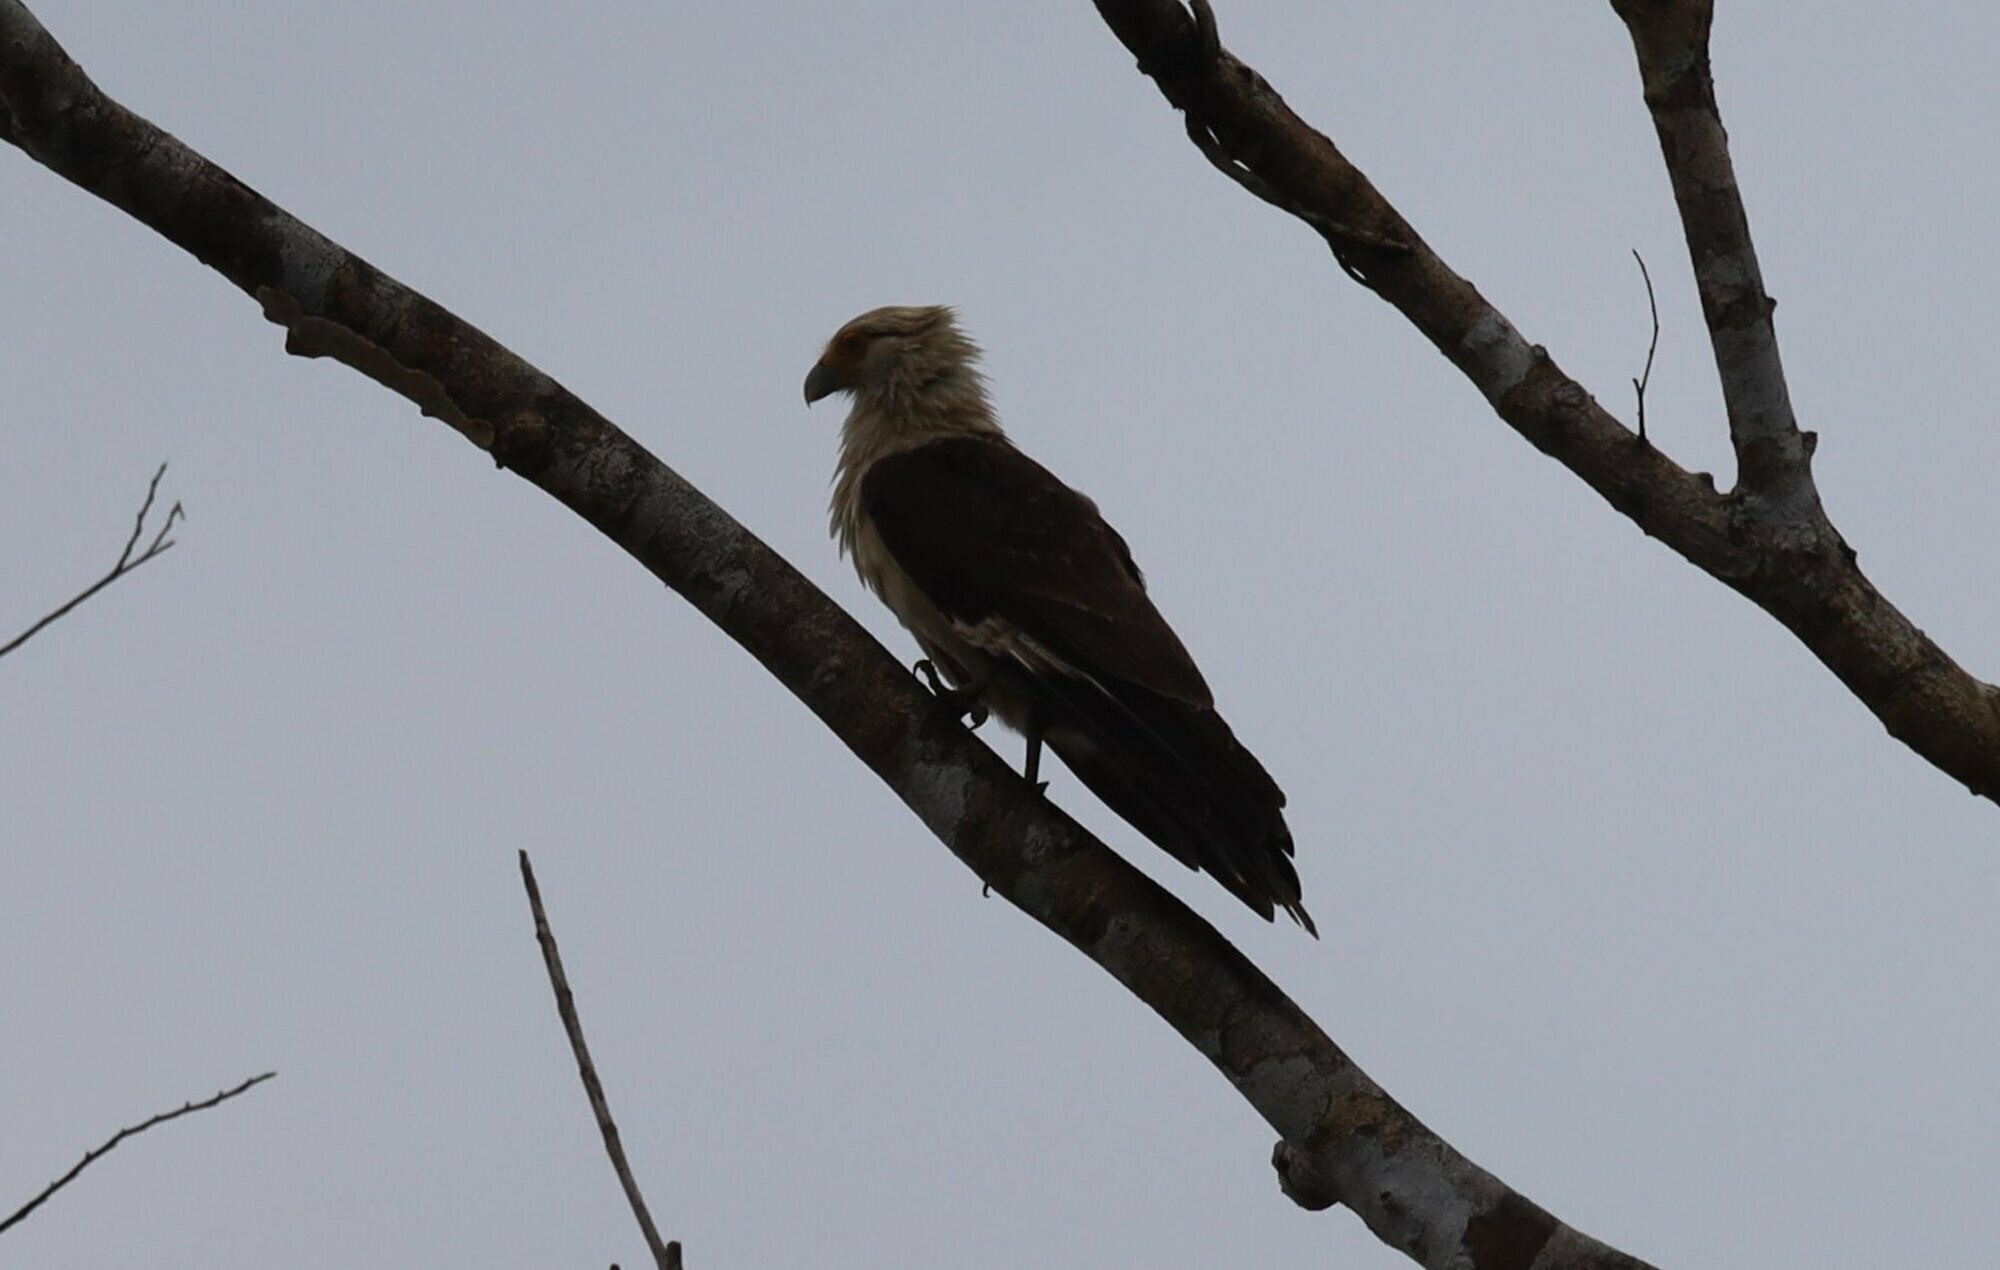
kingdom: Animalia
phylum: Chordata
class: Aves
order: Falconiformes
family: Falconidae
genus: Daptrius
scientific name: Daptrius
